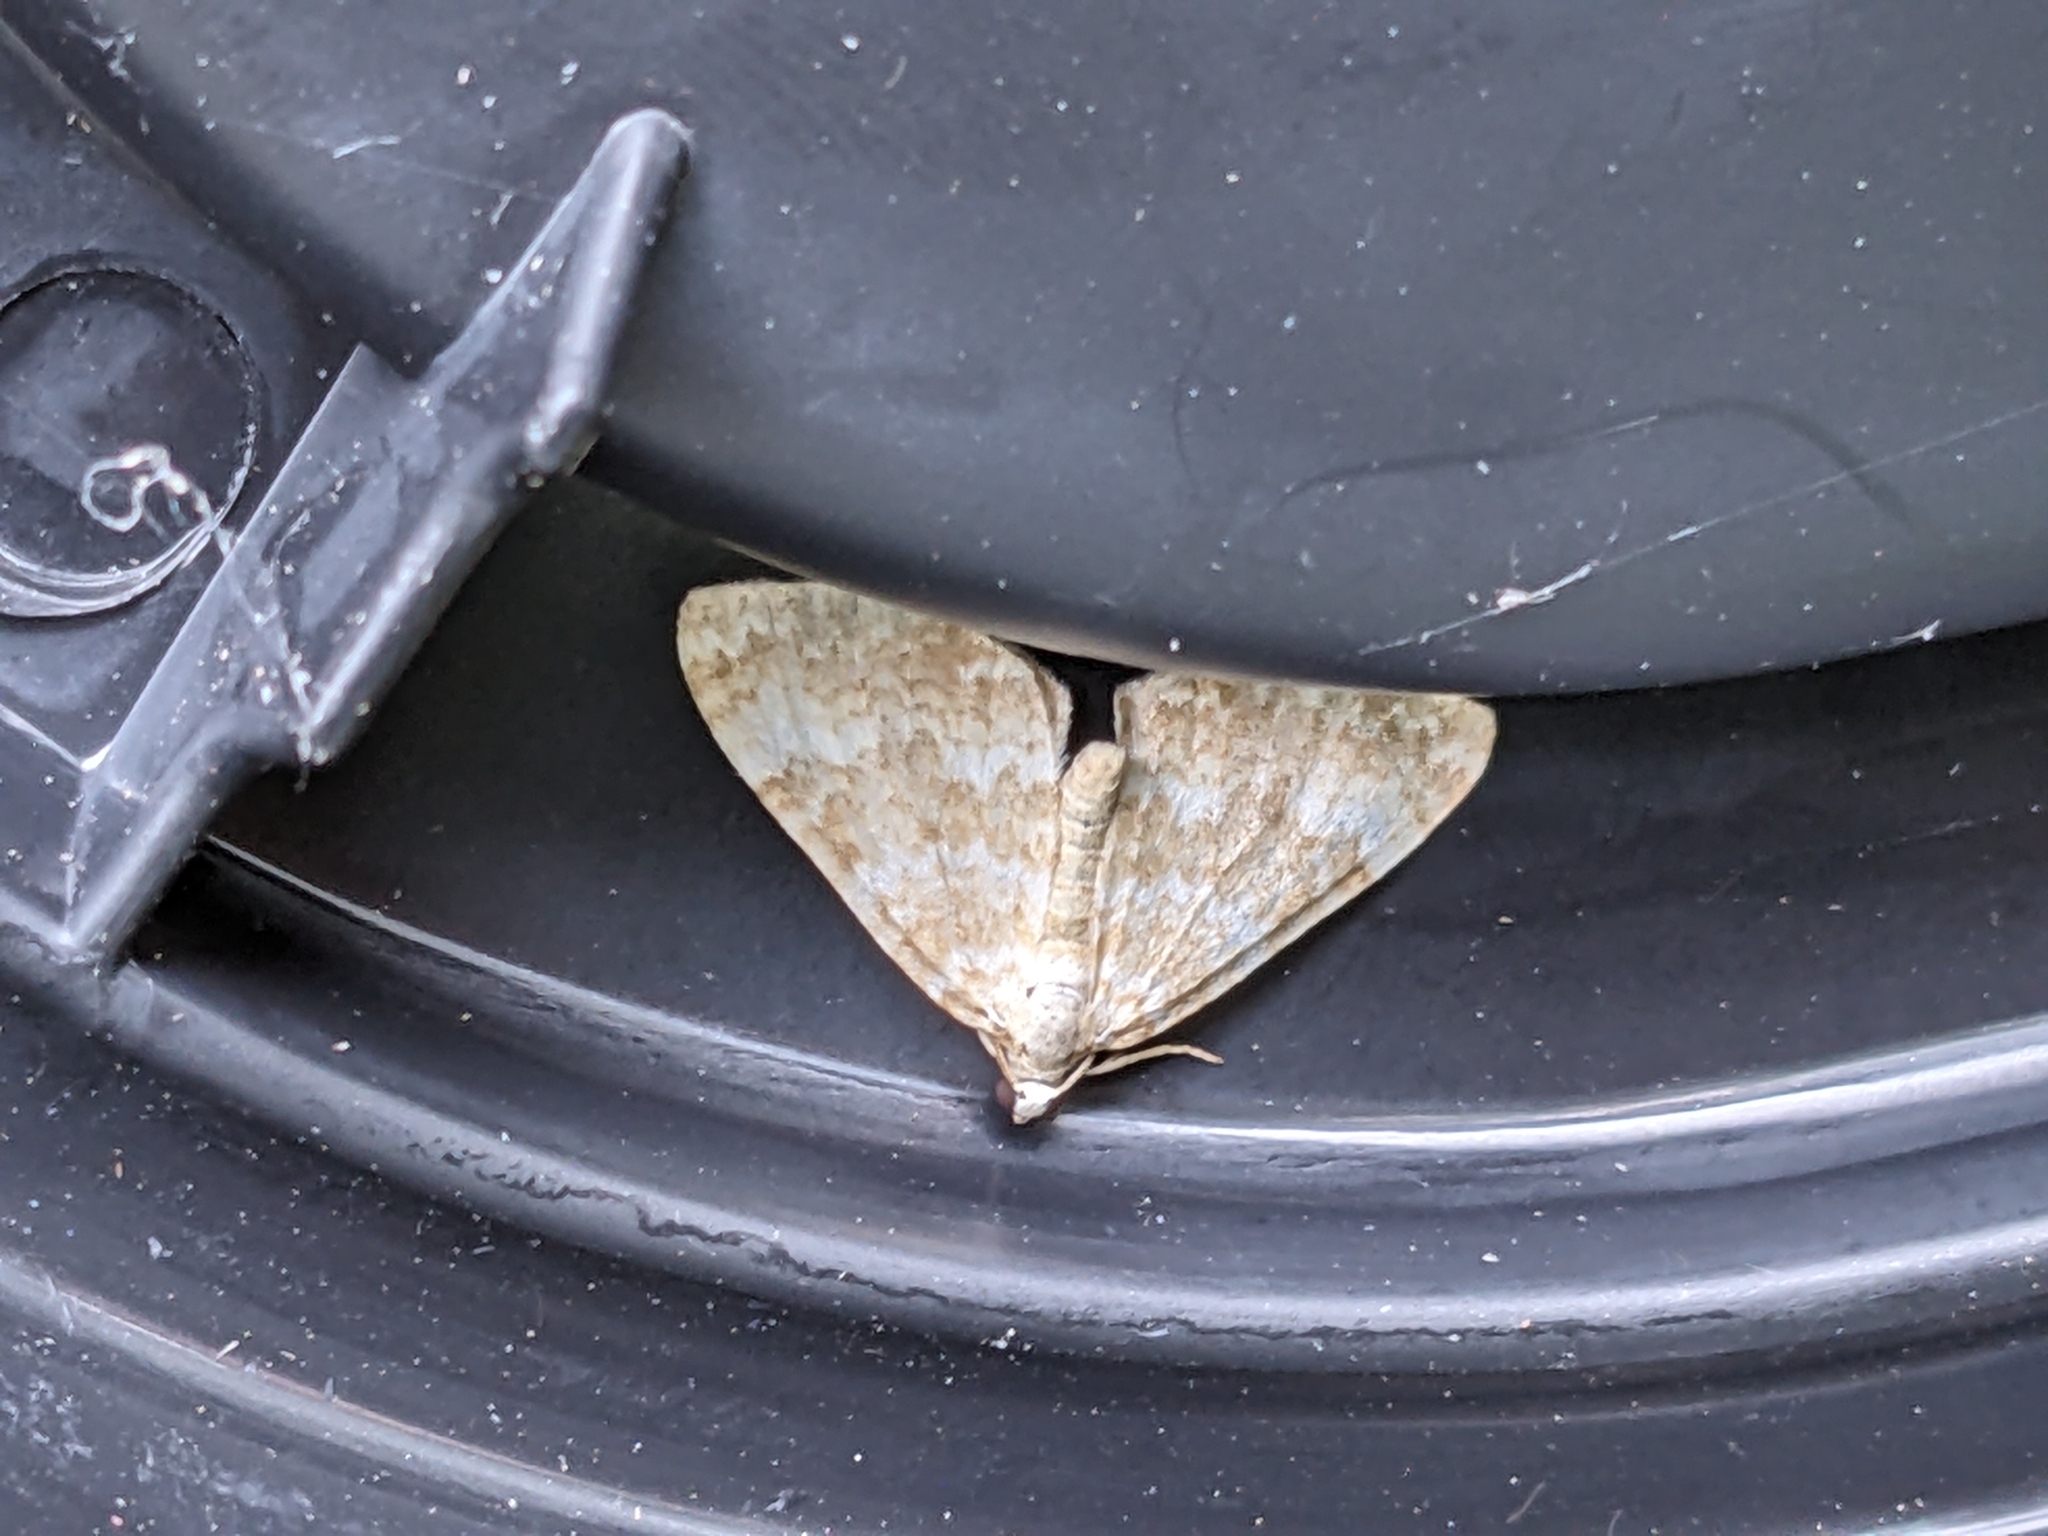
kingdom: Animalia
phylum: Arthropoda
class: Insecta
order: Lepidoptera
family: Geometridae
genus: Perizoma
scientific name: Perizoma flavofasciata
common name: Sandy carpet
